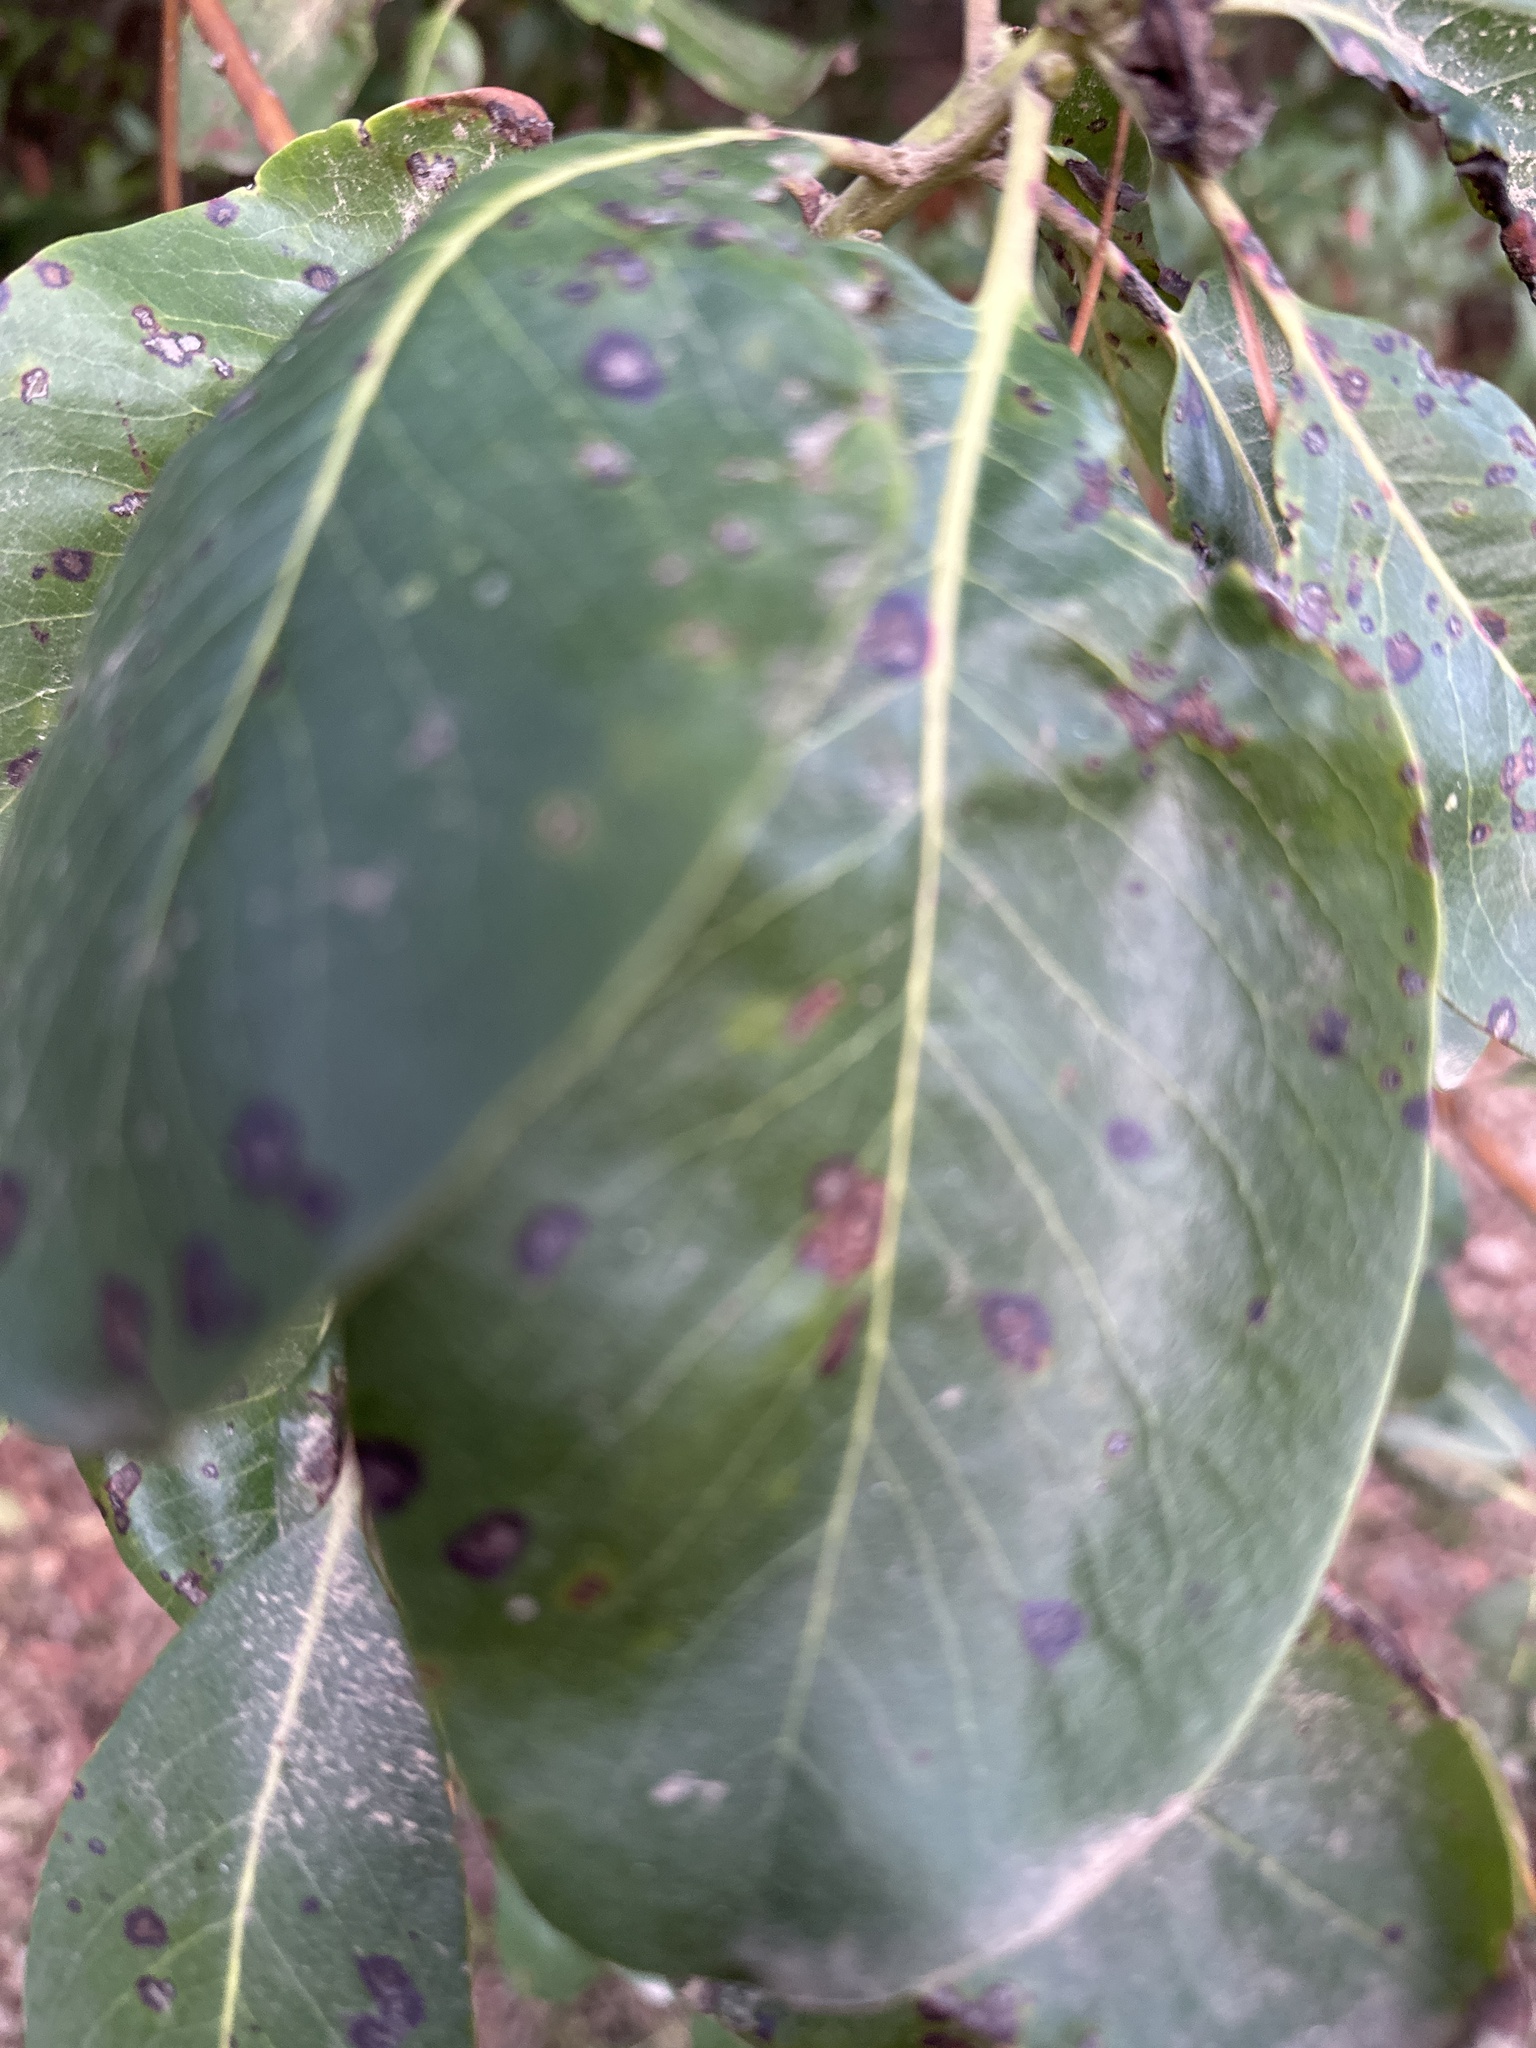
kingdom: Plantae
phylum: Tracheophyta
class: Magnoliopsida
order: Ericales
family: Ericaceae
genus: Arbutus
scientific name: Arbutus menziesii
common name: Pacific madrone
